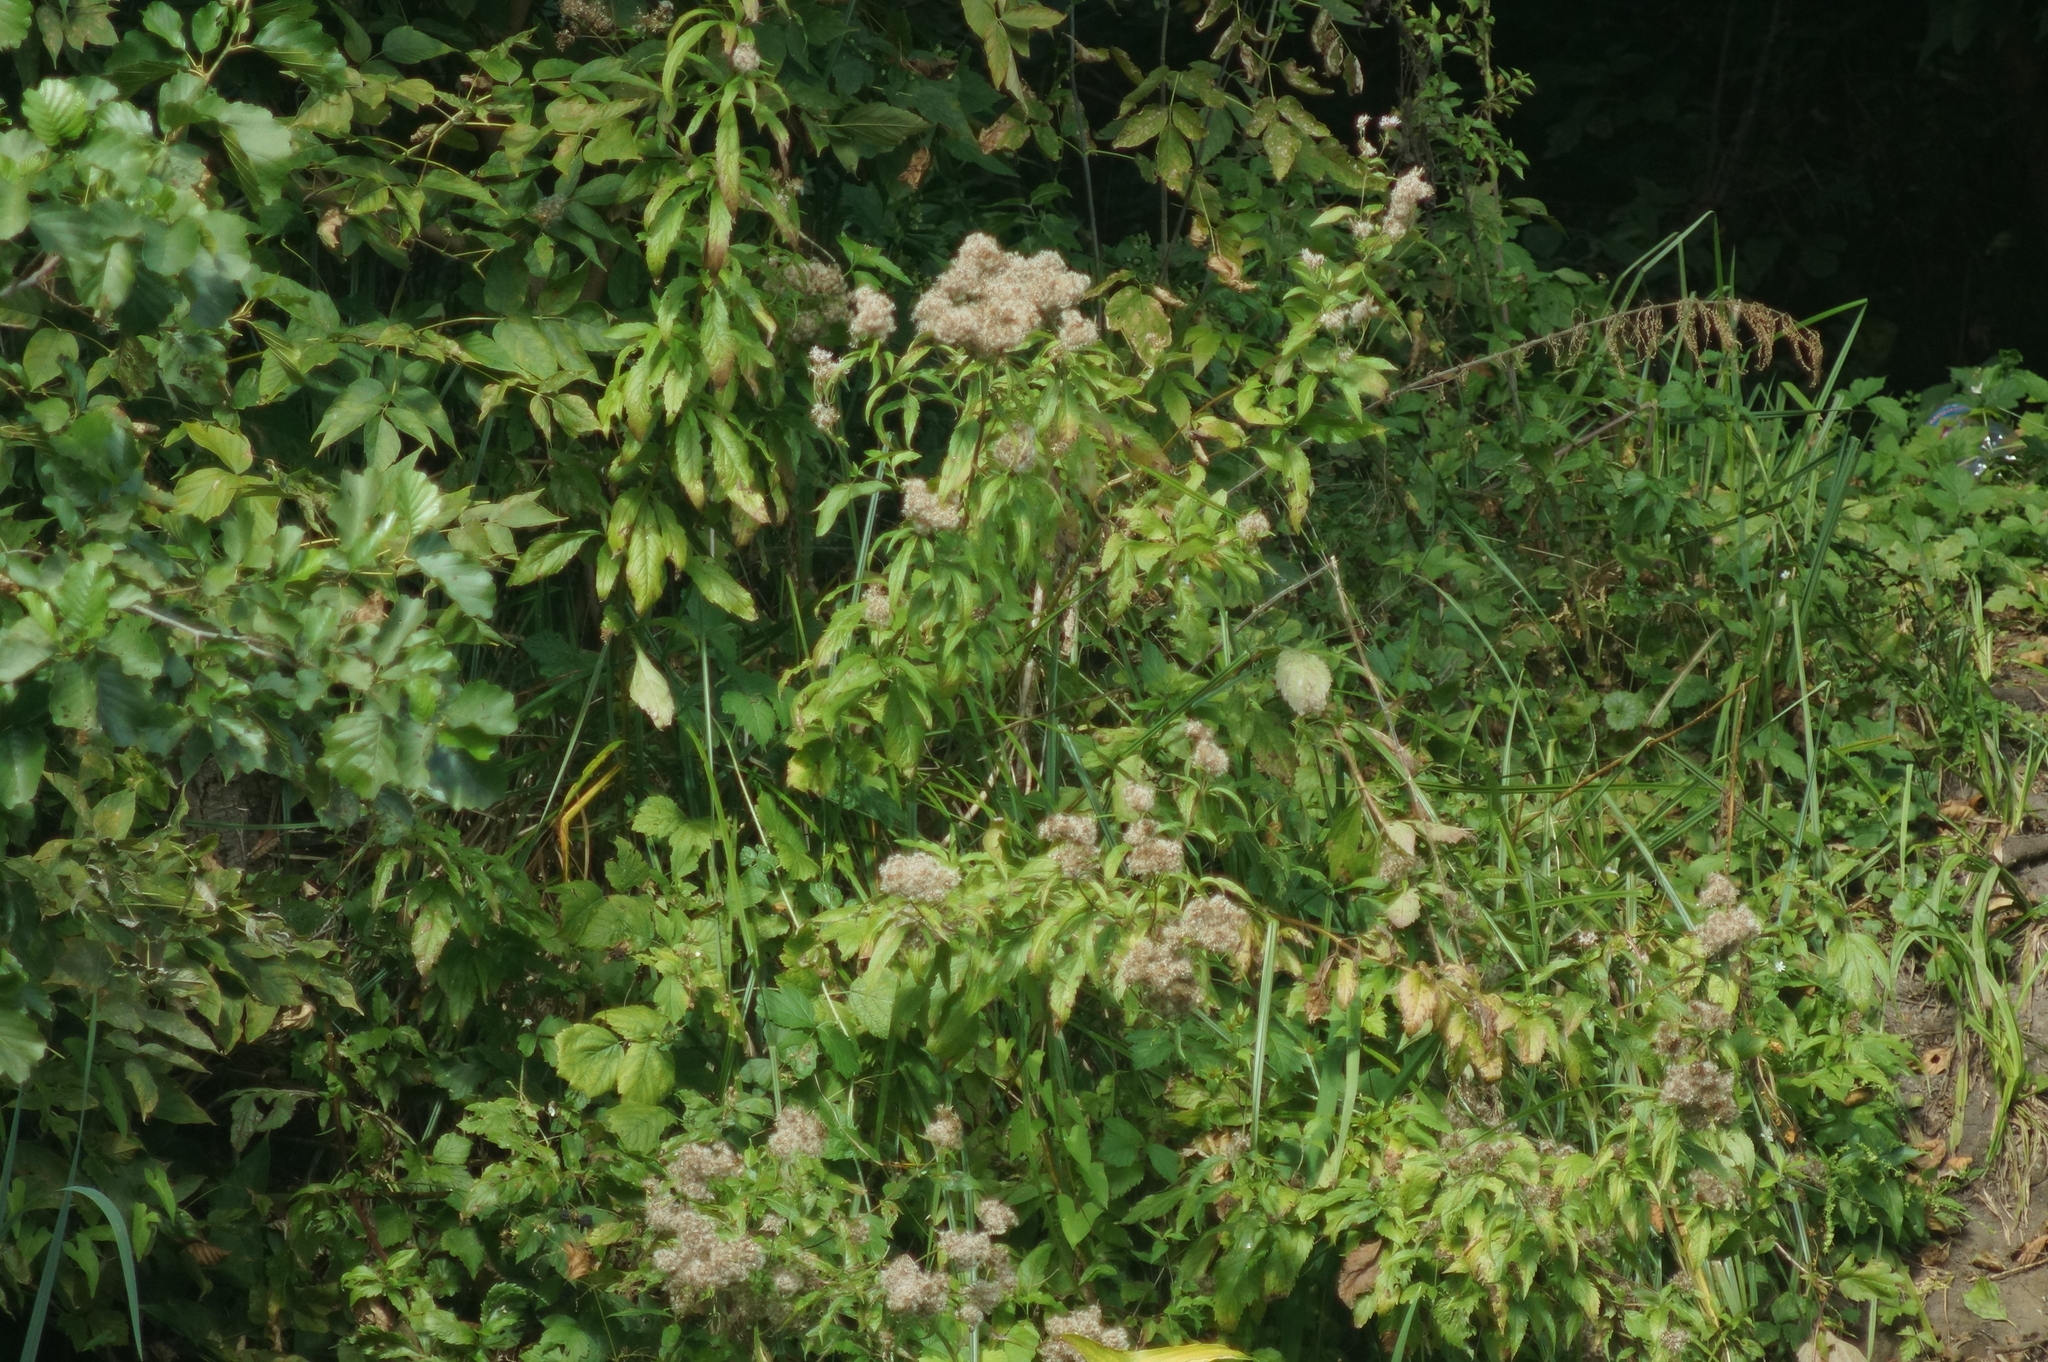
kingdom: Plantae
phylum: Tracheophyta
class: Magnoliopsida
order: Asterales
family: Asteraceae
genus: Eupatorium
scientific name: Eupatorium cannabinum
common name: Hemp-agrimony
